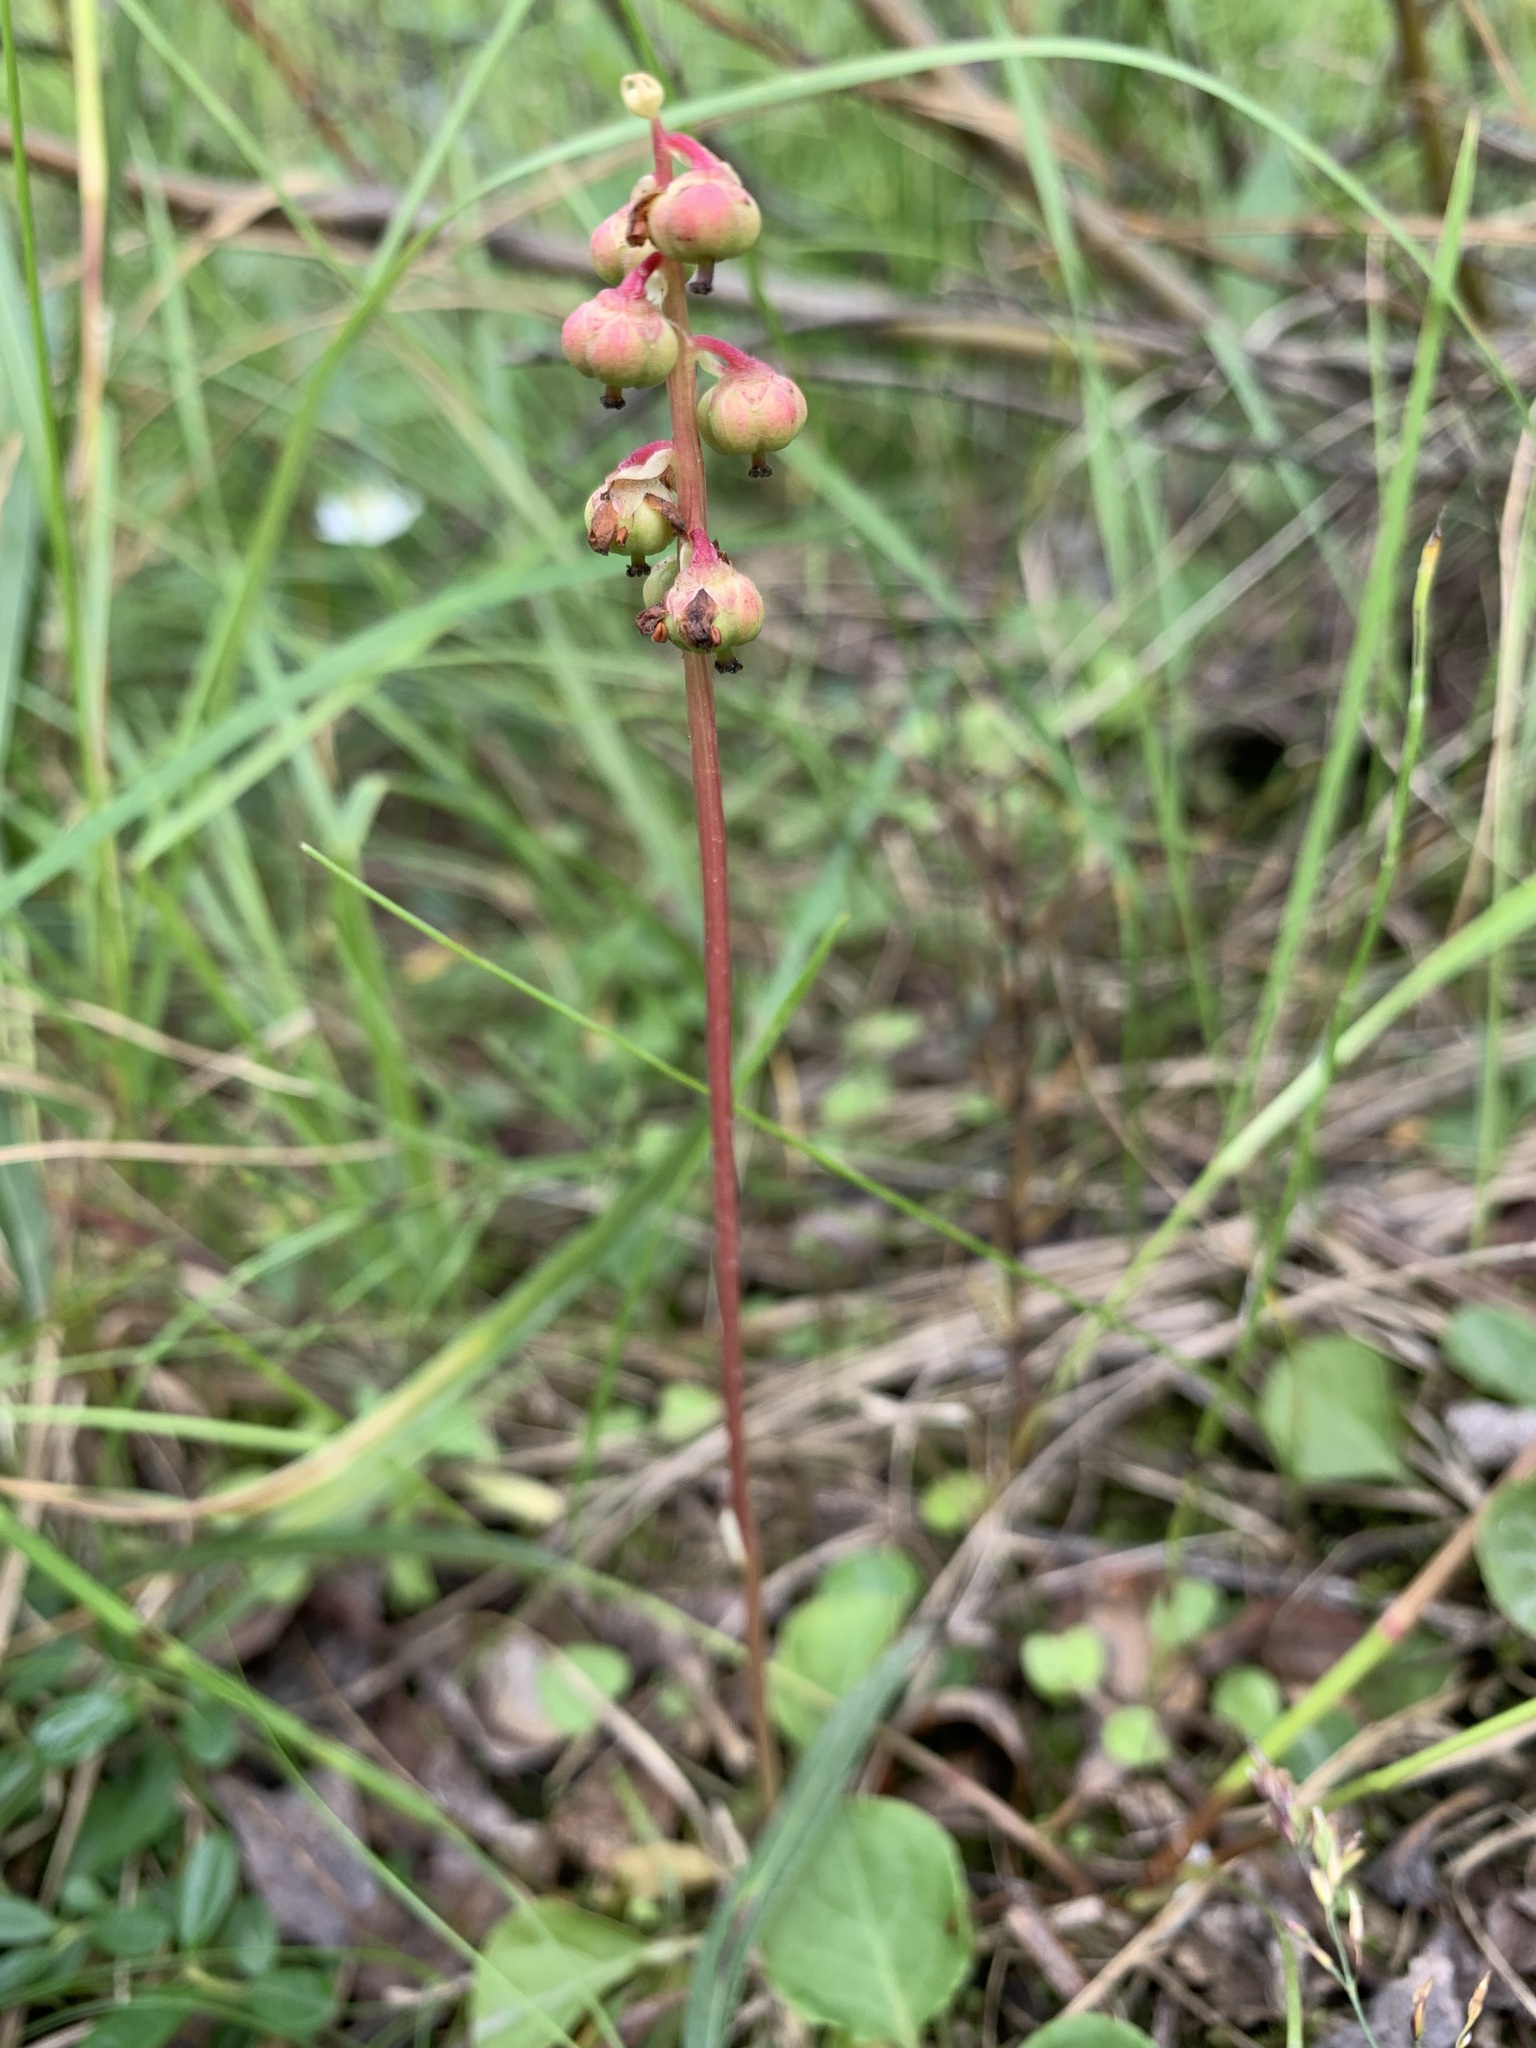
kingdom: Plantae
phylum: Tracheophyta
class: Magnoliopsida
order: Ericales
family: Ericaceae
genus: Pyrola
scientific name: Pyrola grandiflora
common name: Arctic pyrola
